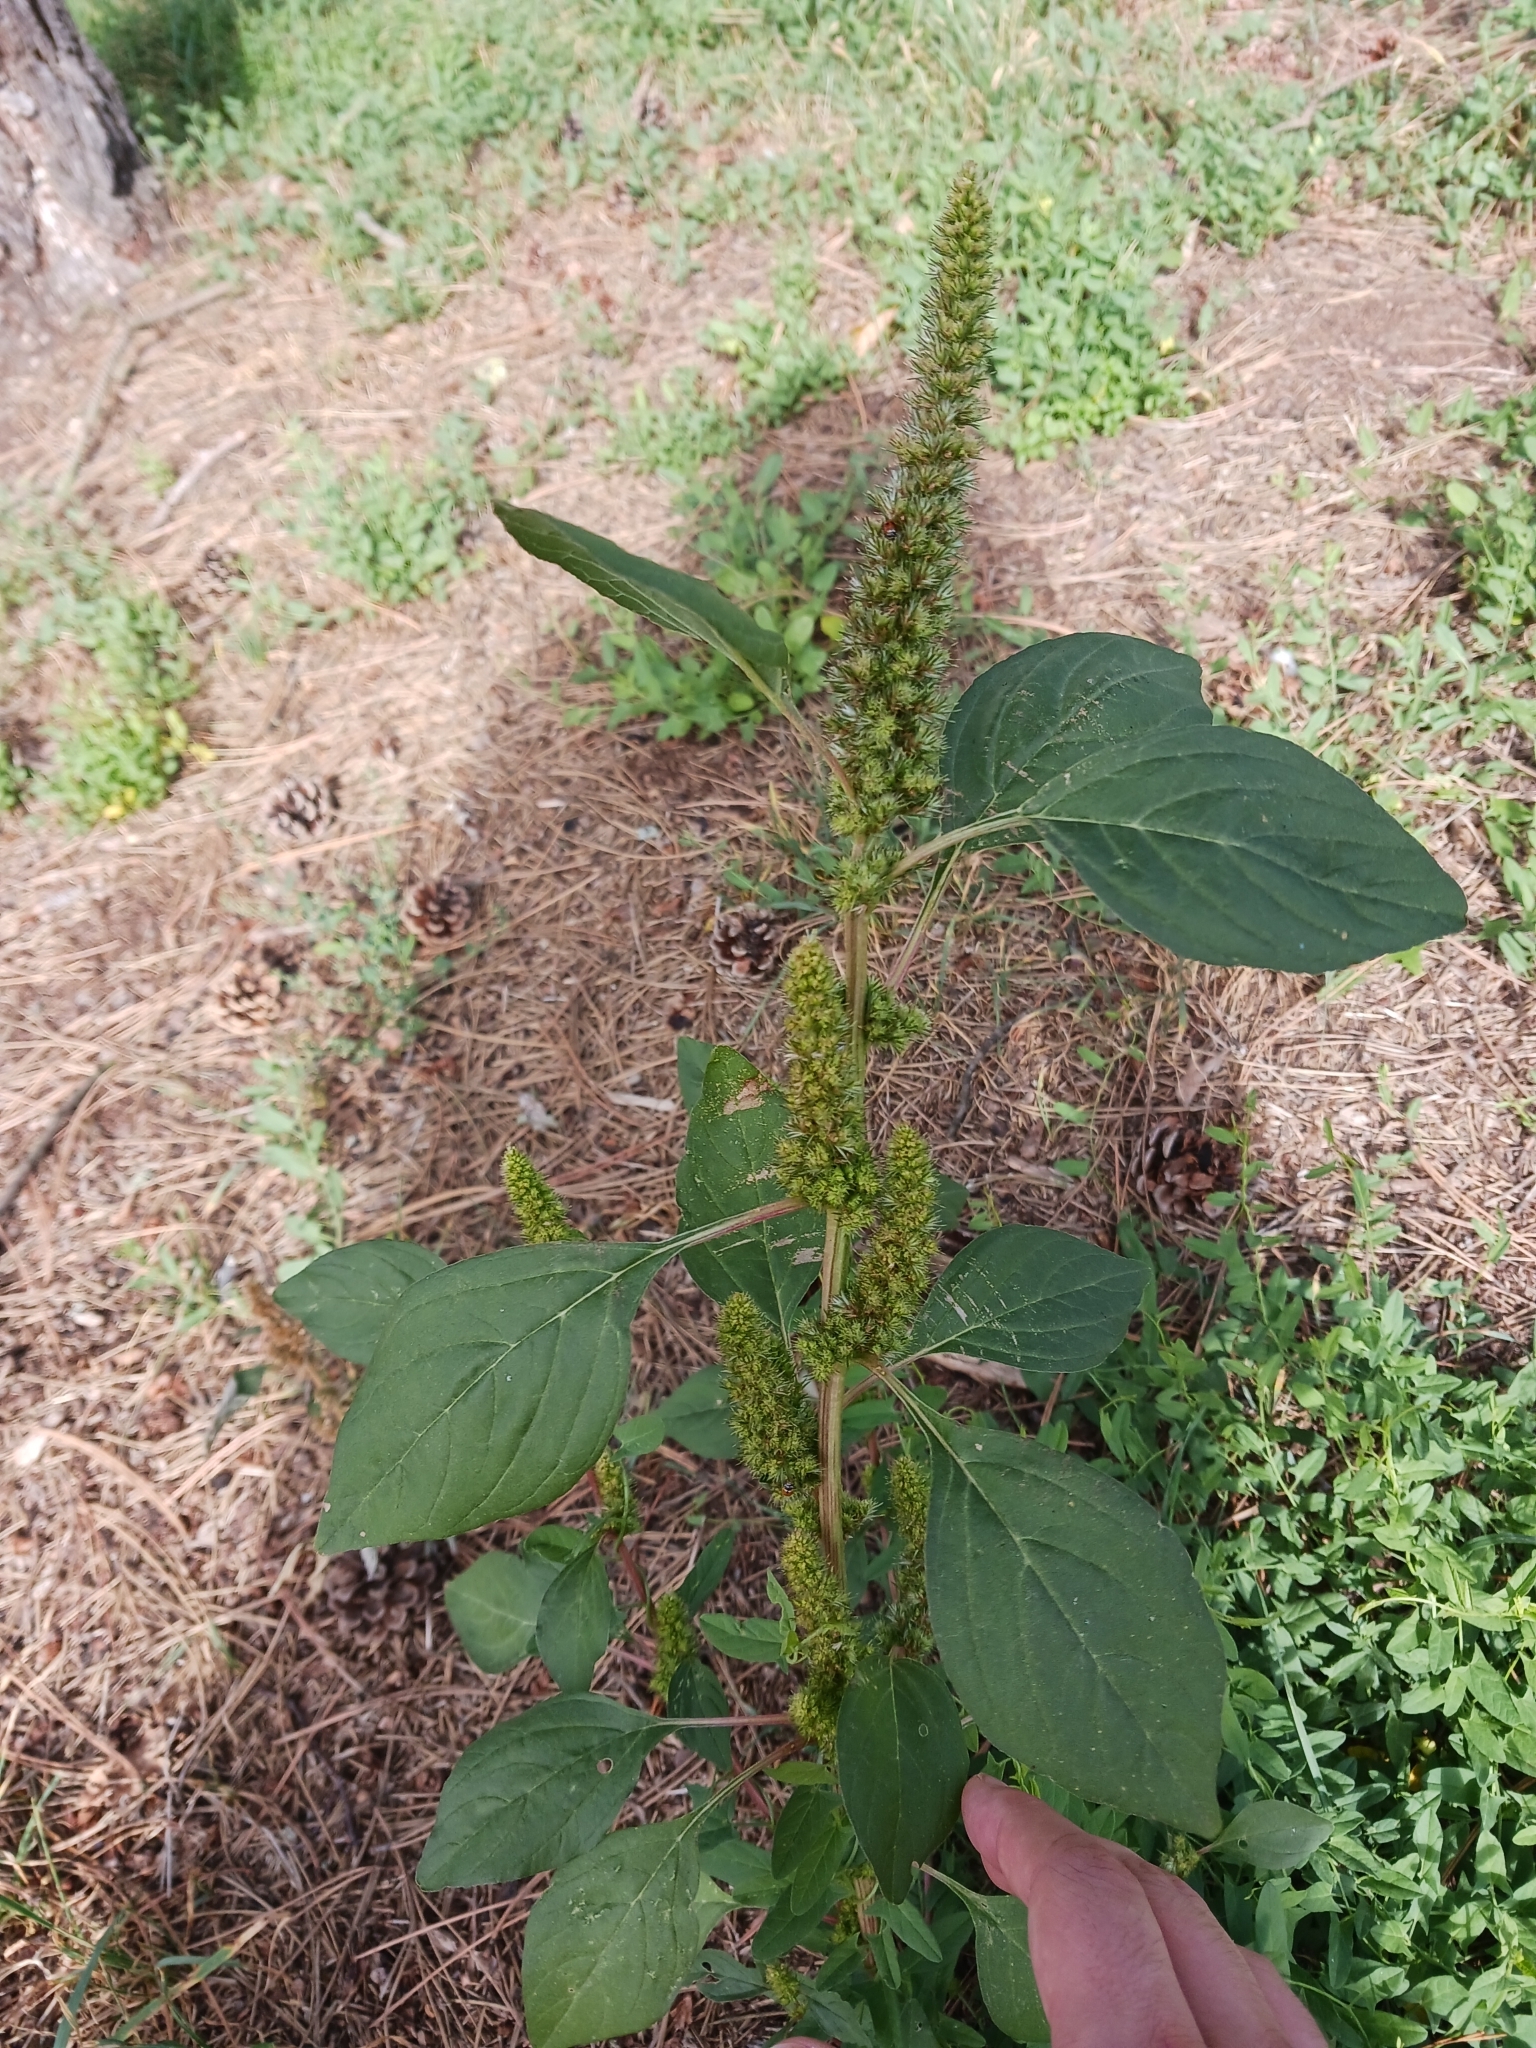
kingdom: Plantae
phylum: Tracheophyta
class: Magnoliopsida
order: Caryophyllales
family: Amaranthaceae
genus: Amaranthus
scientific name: Amaranthus retroflexus
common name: Redroot amaranth
